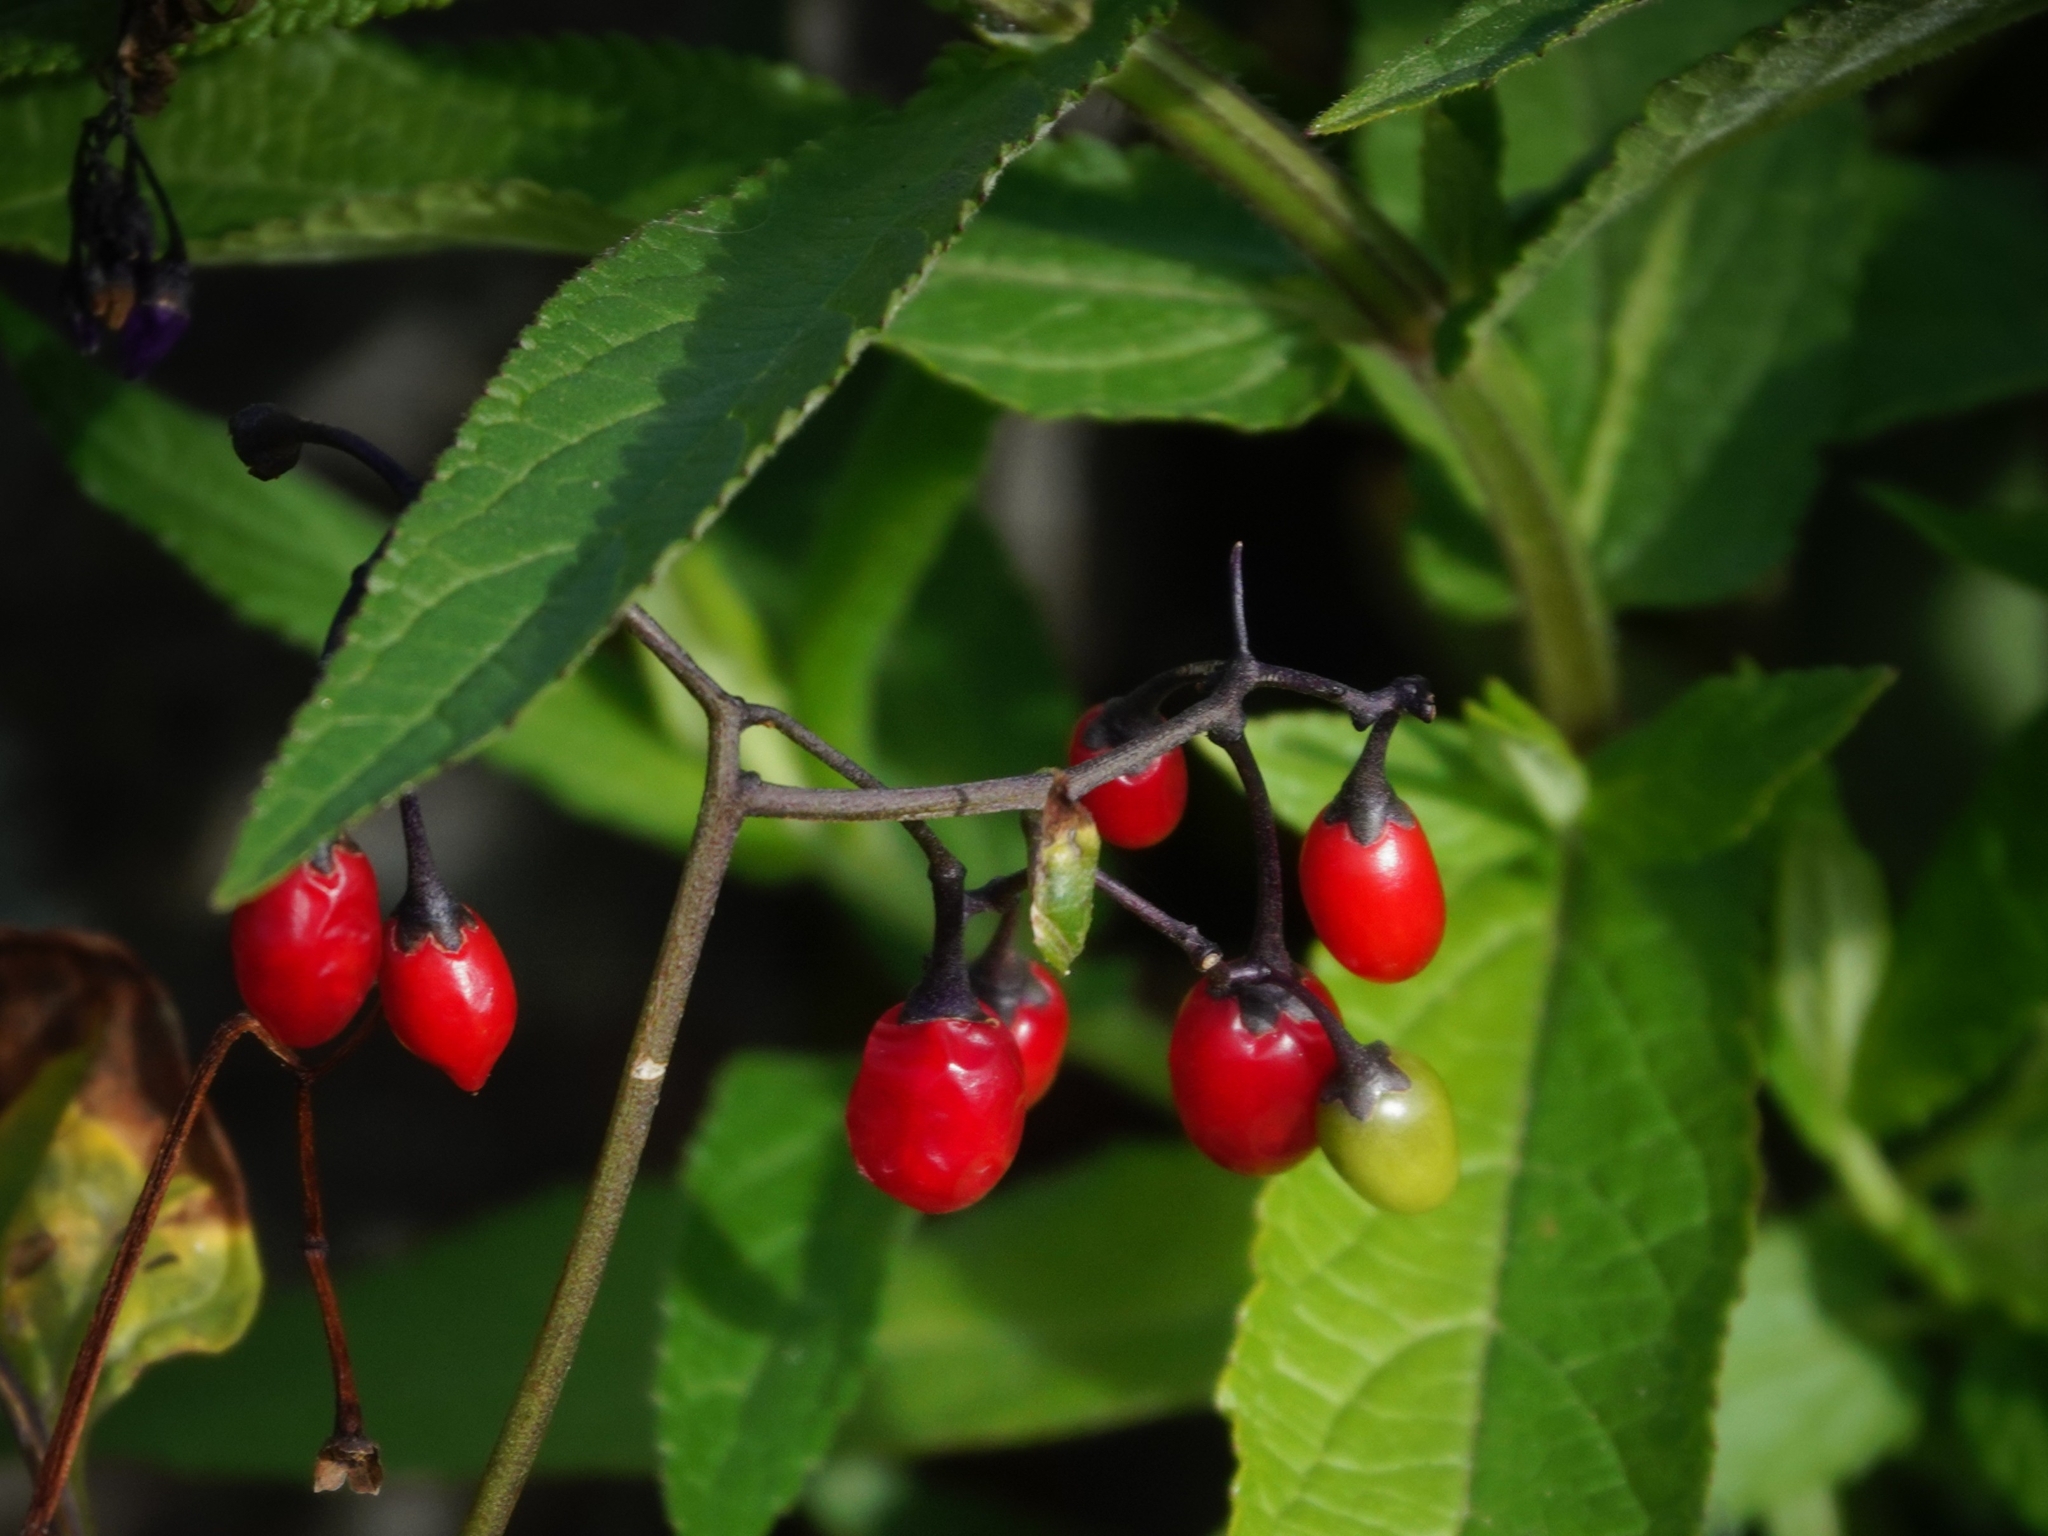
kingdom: Plantae
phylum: Tracheophyta
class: Magnoliopsida
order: Solanales
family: Solanaceae
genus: Solanum
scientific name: Solanum dulcamara
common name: Climbing nightshade
